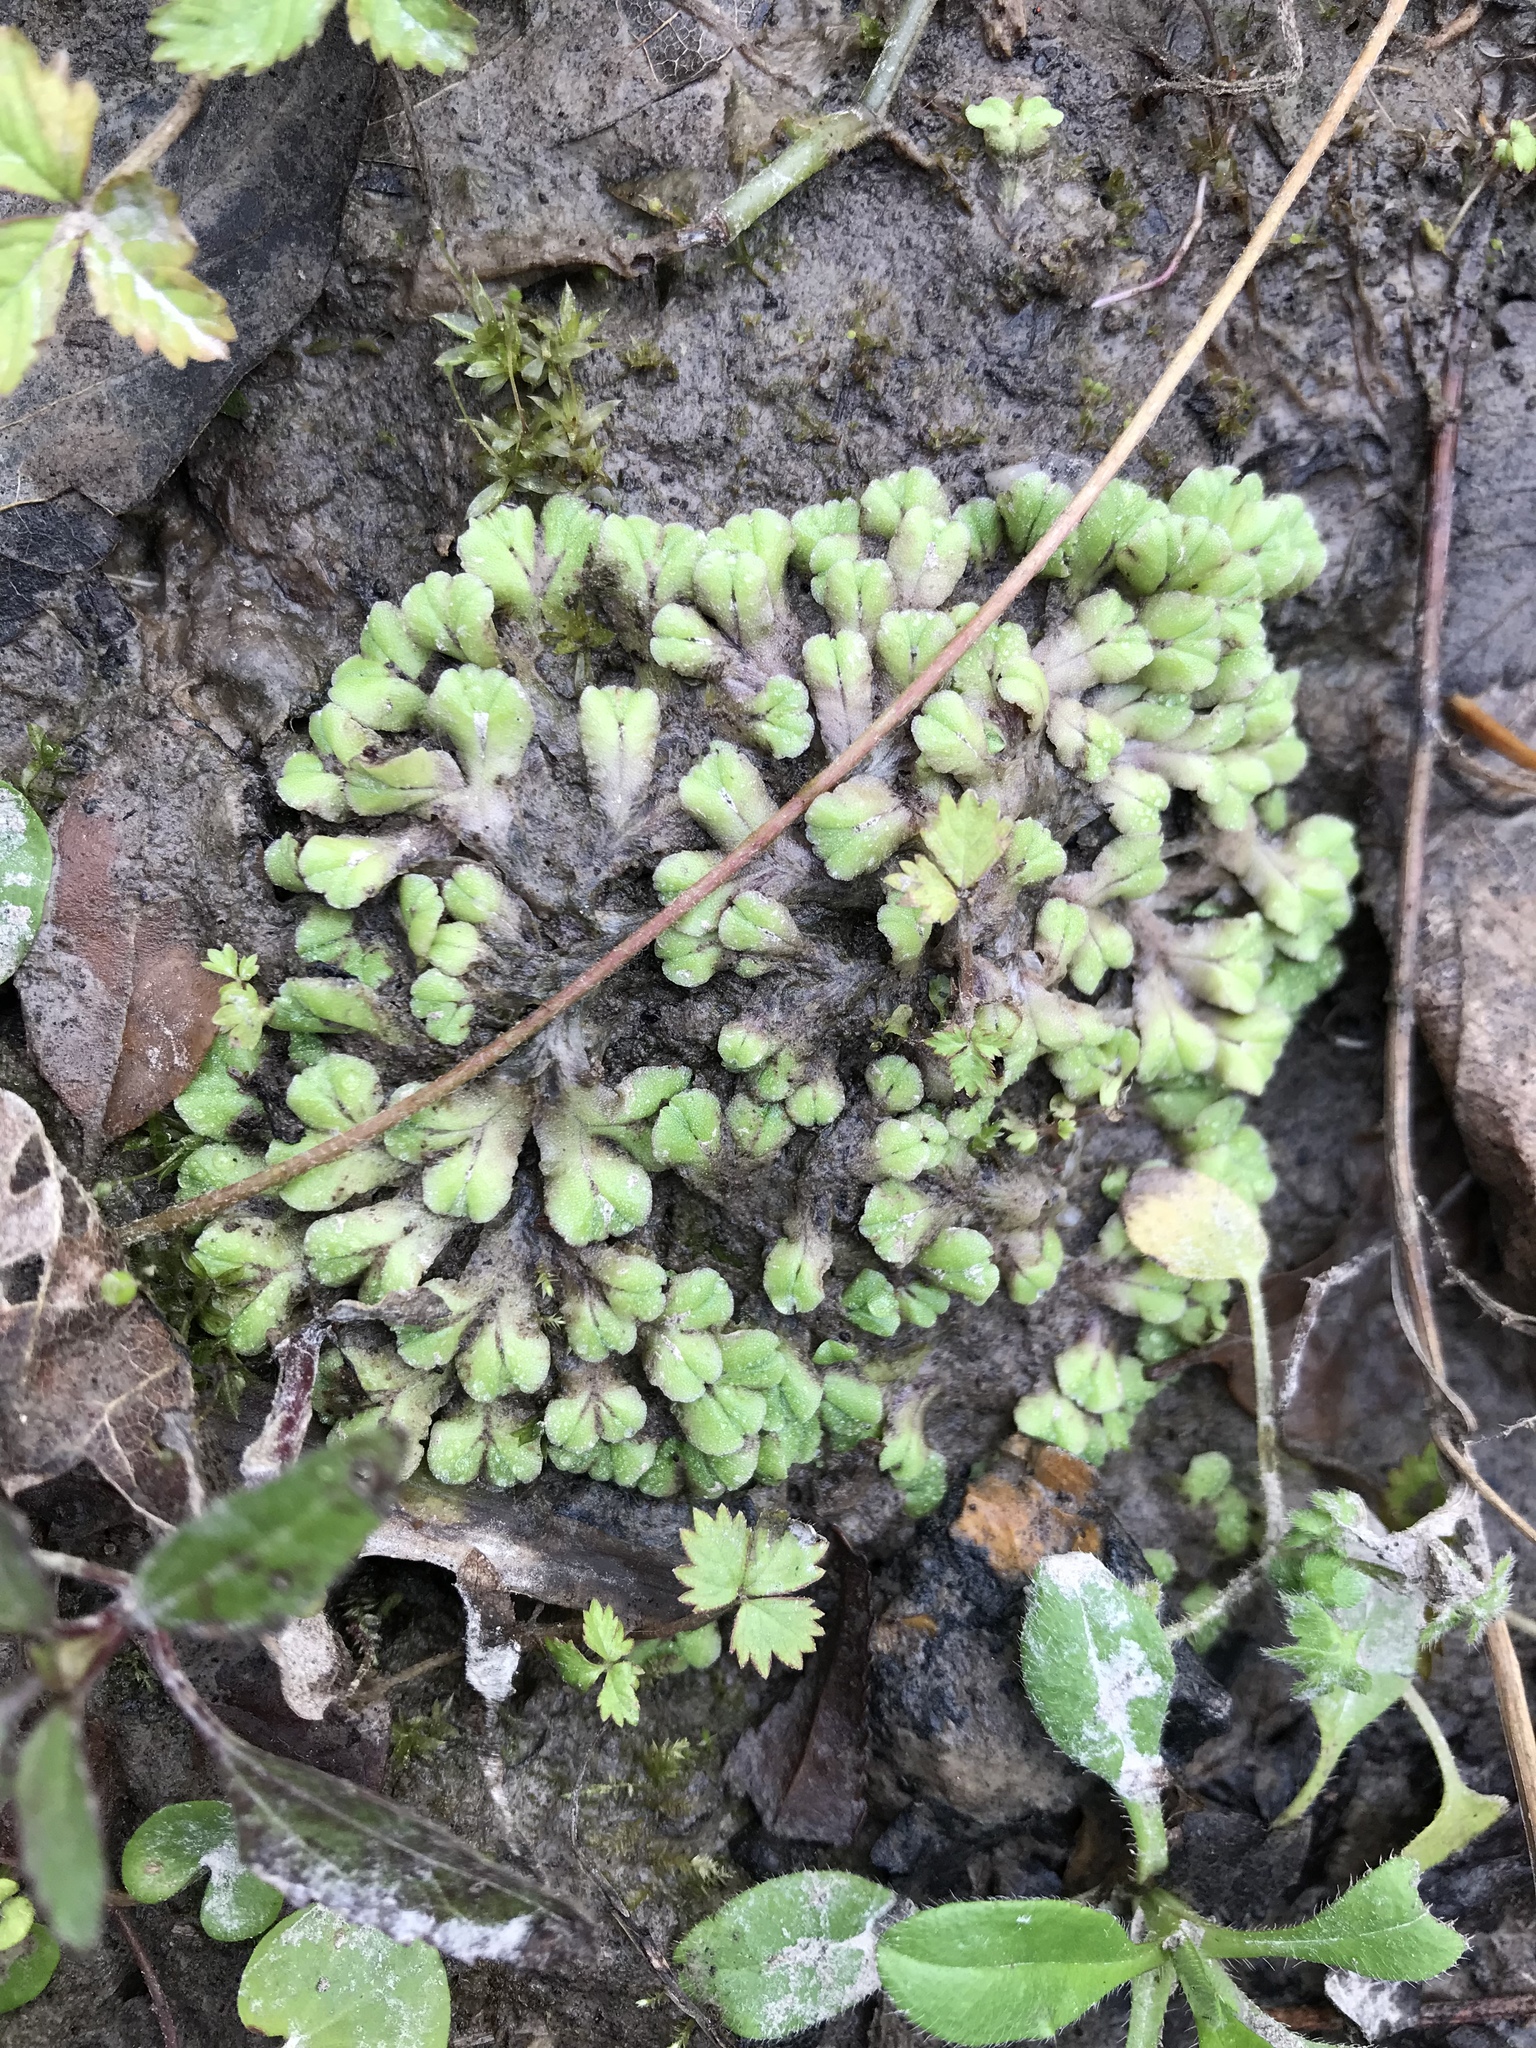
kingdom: Plantae
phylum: Marchantiophyta
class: Marchantiopsida
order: Marchantiales
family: Ricciaceae
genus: Ricciocarpos
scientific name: Ricciocarpos natans
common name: Purple-fringed liverwort
